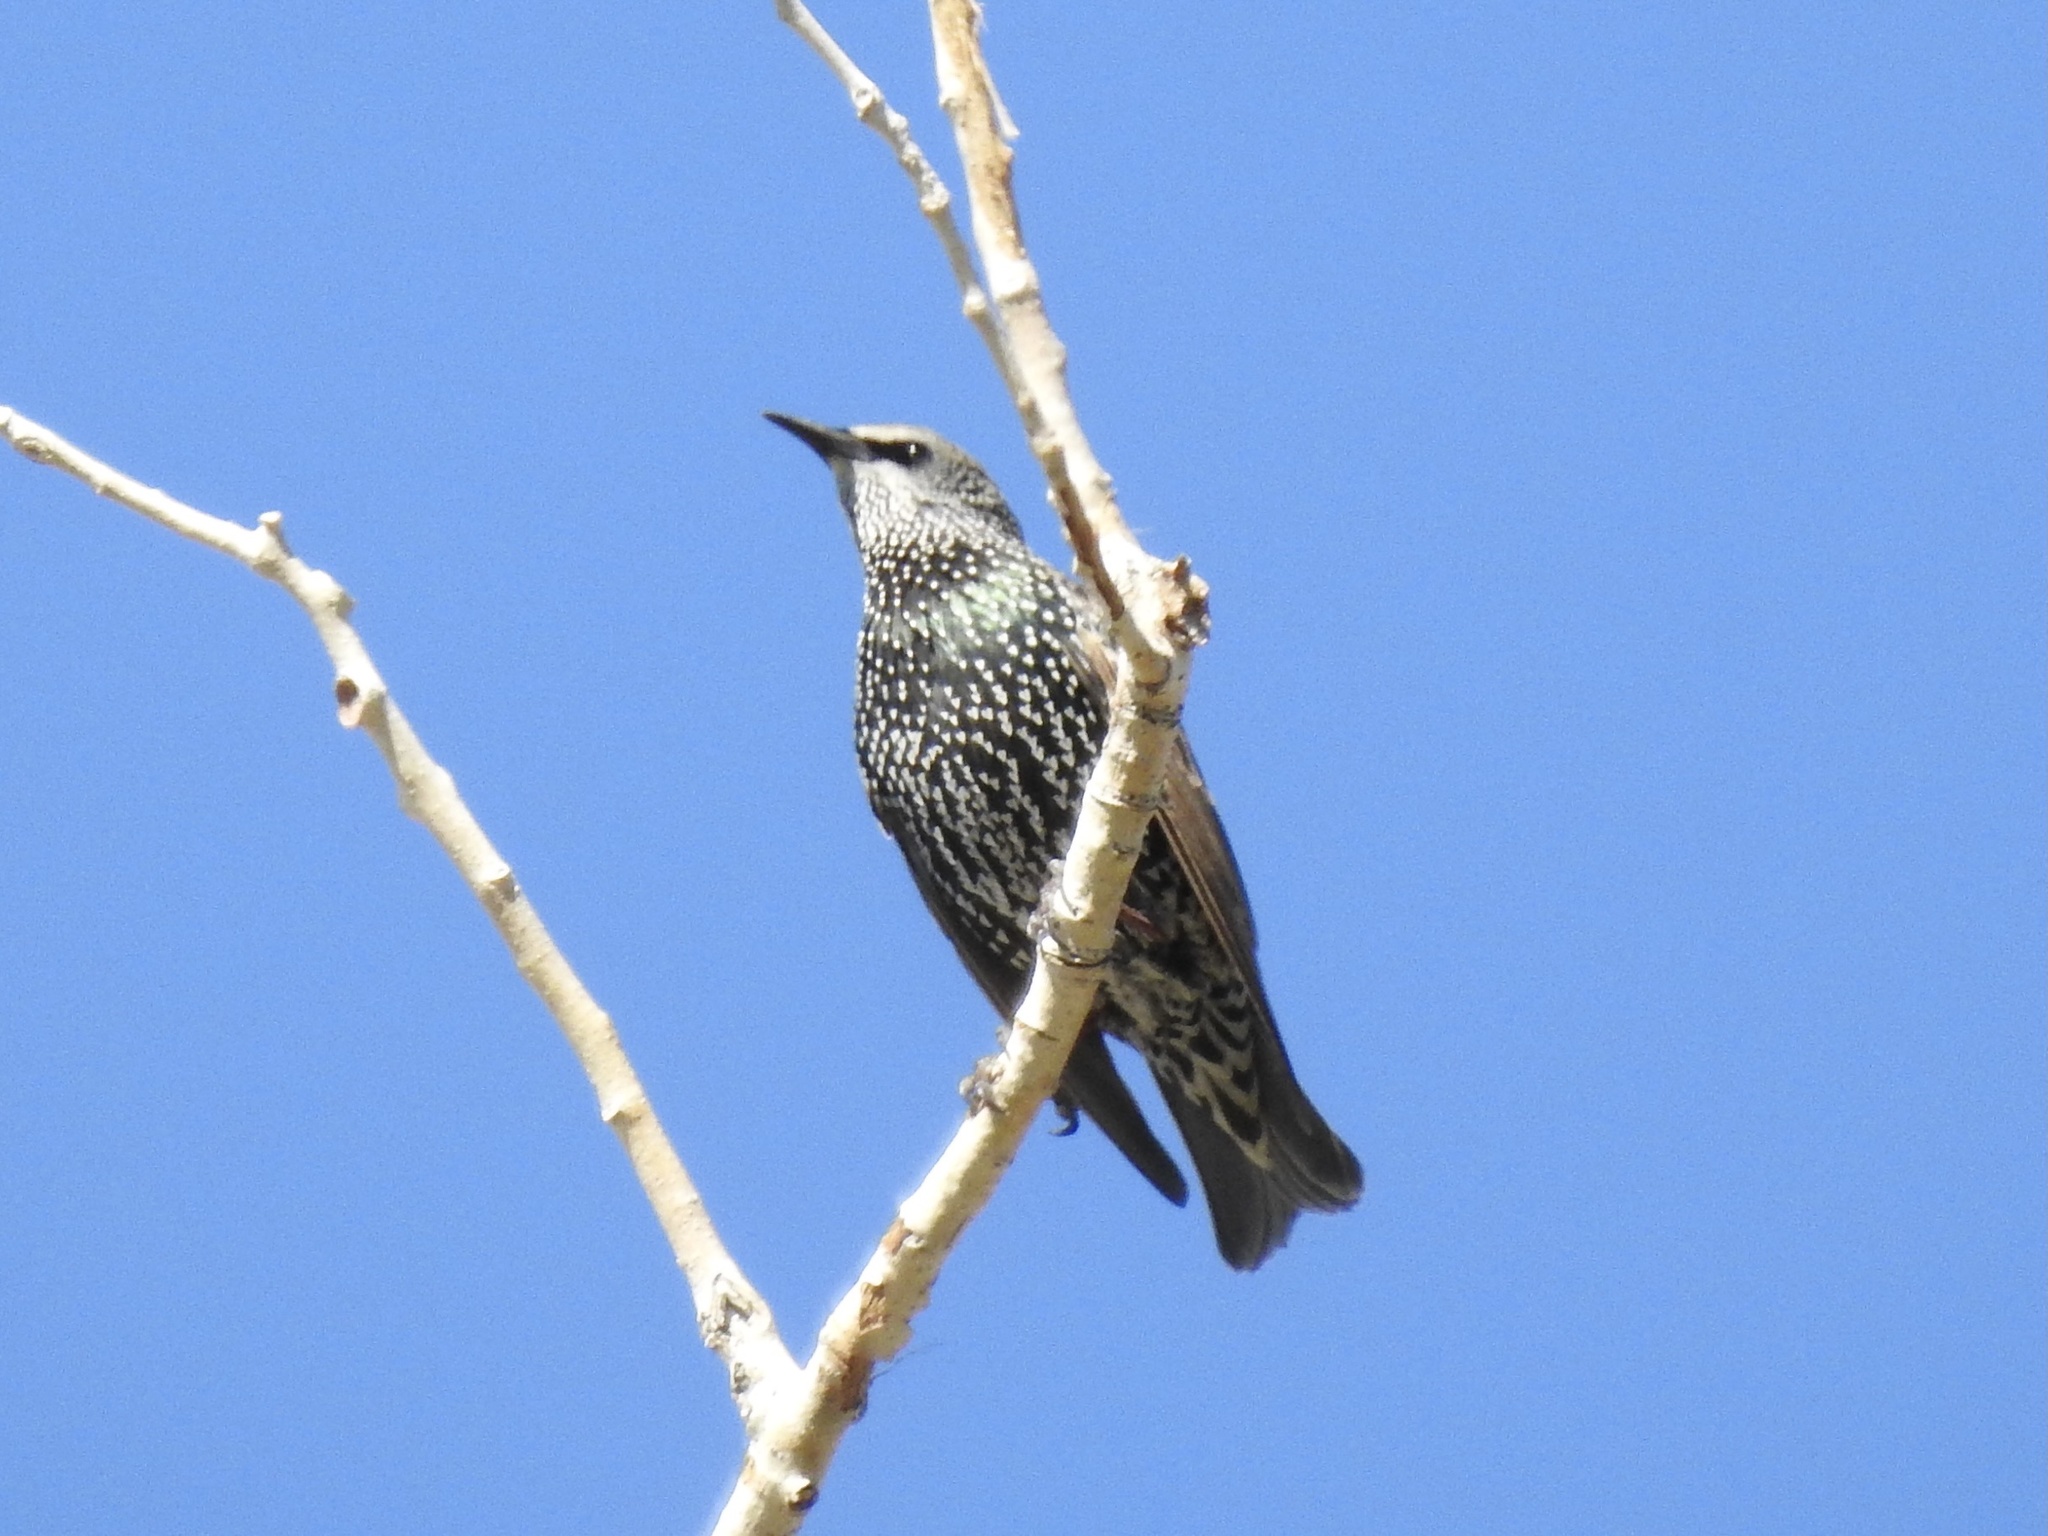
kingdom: Animalia
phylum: Chordata
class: Aves
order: Passeriformes
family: Sturnidae
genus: Sturnus
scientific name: Sturnus vulgaris
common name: Common starling
